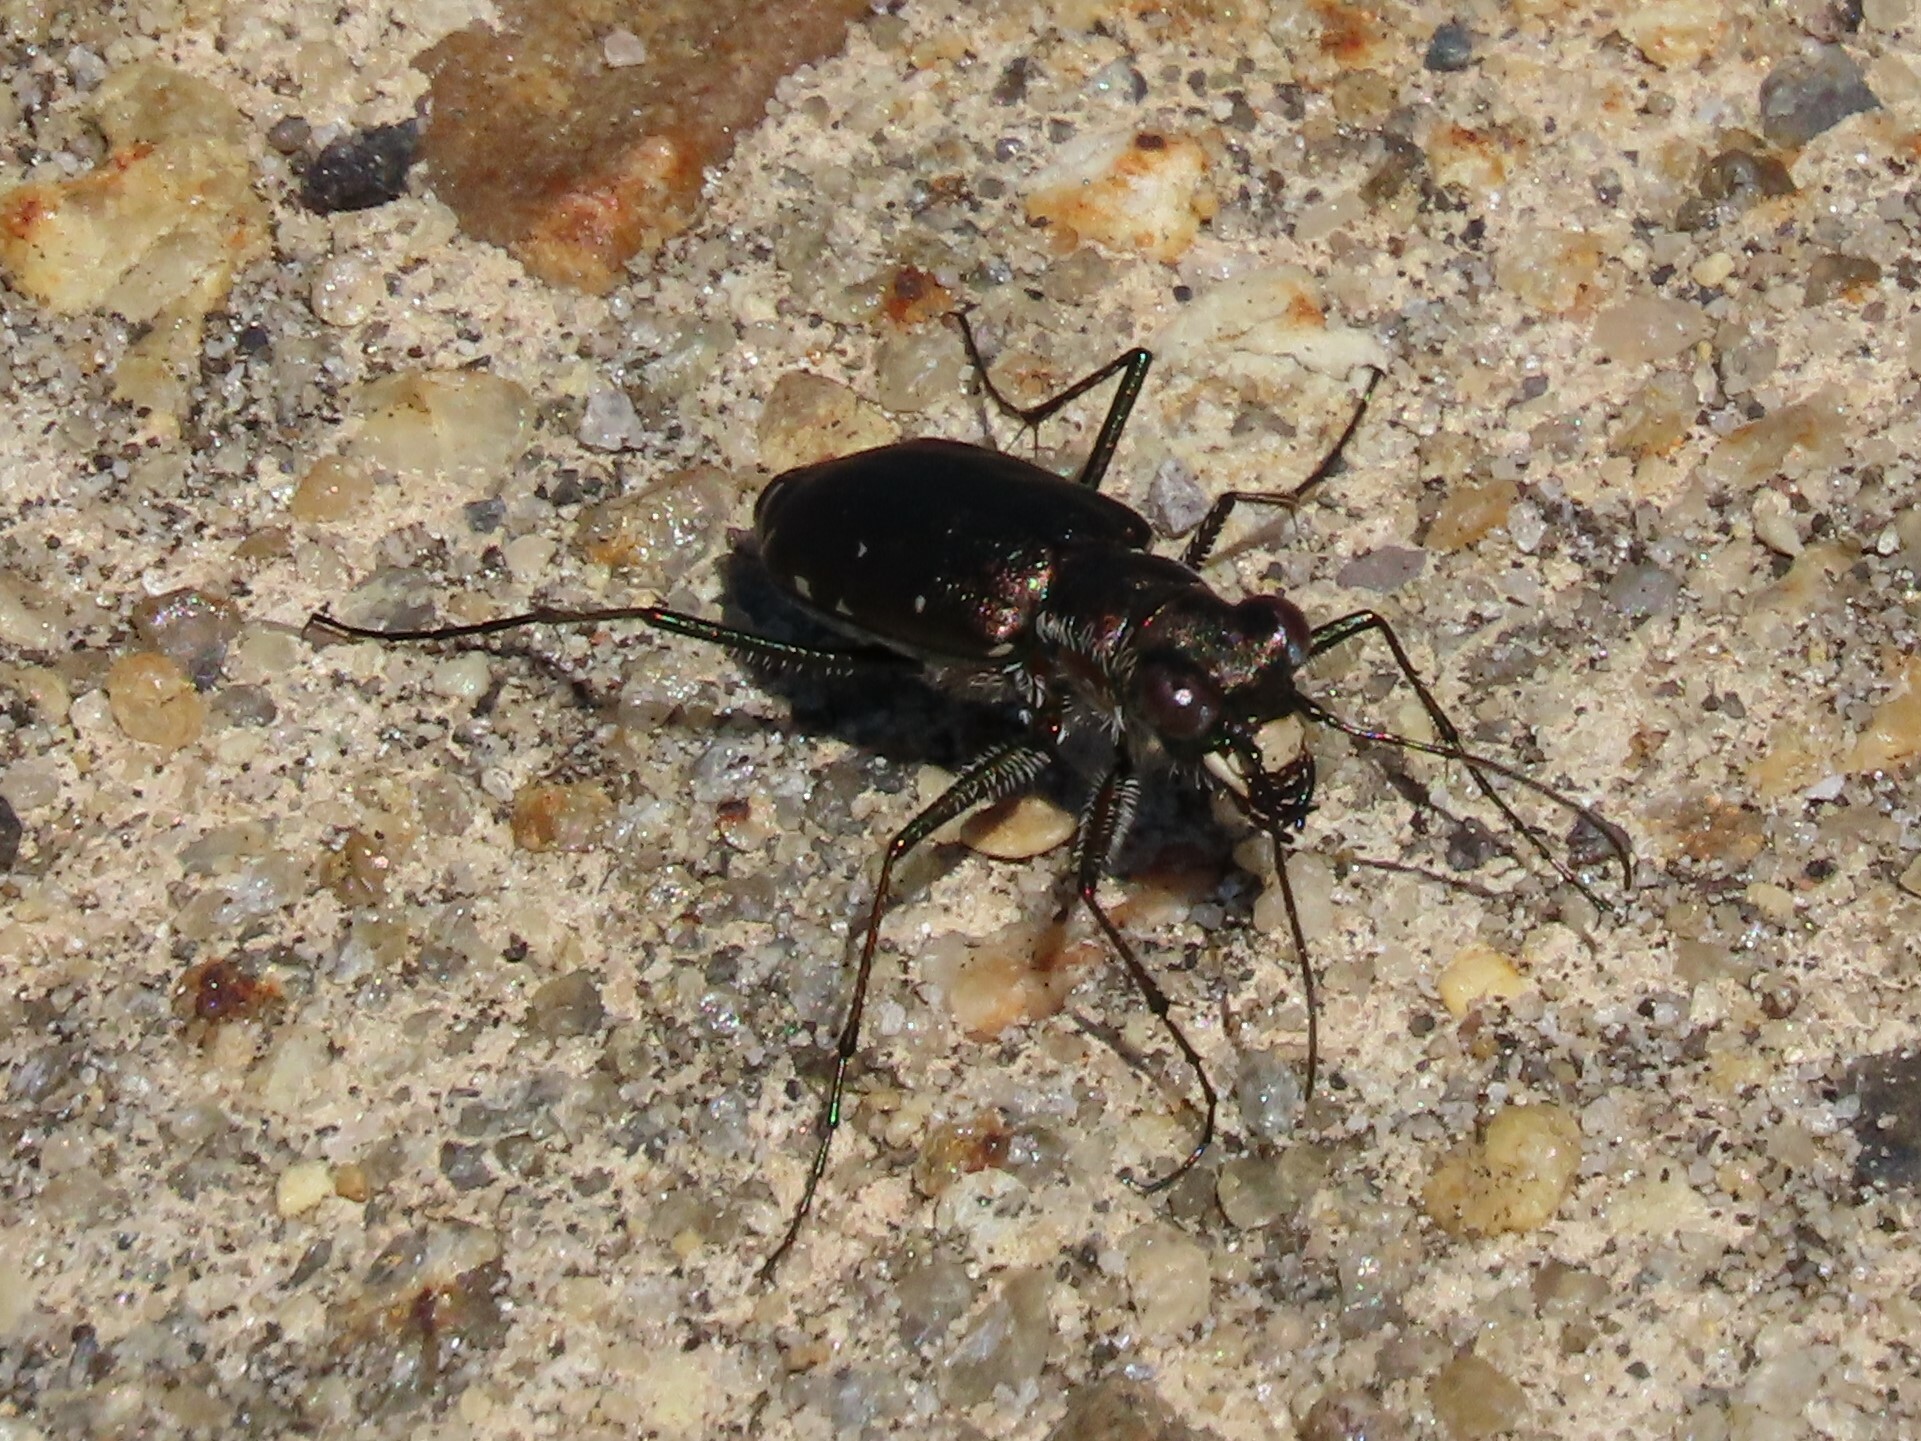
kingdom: Animalia
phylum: Arthropoda
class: Insecta
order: Coleoptera
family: Carabidae
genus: Cicindela
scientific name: Cicindela punctulata
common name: Punctured tiger beetle
